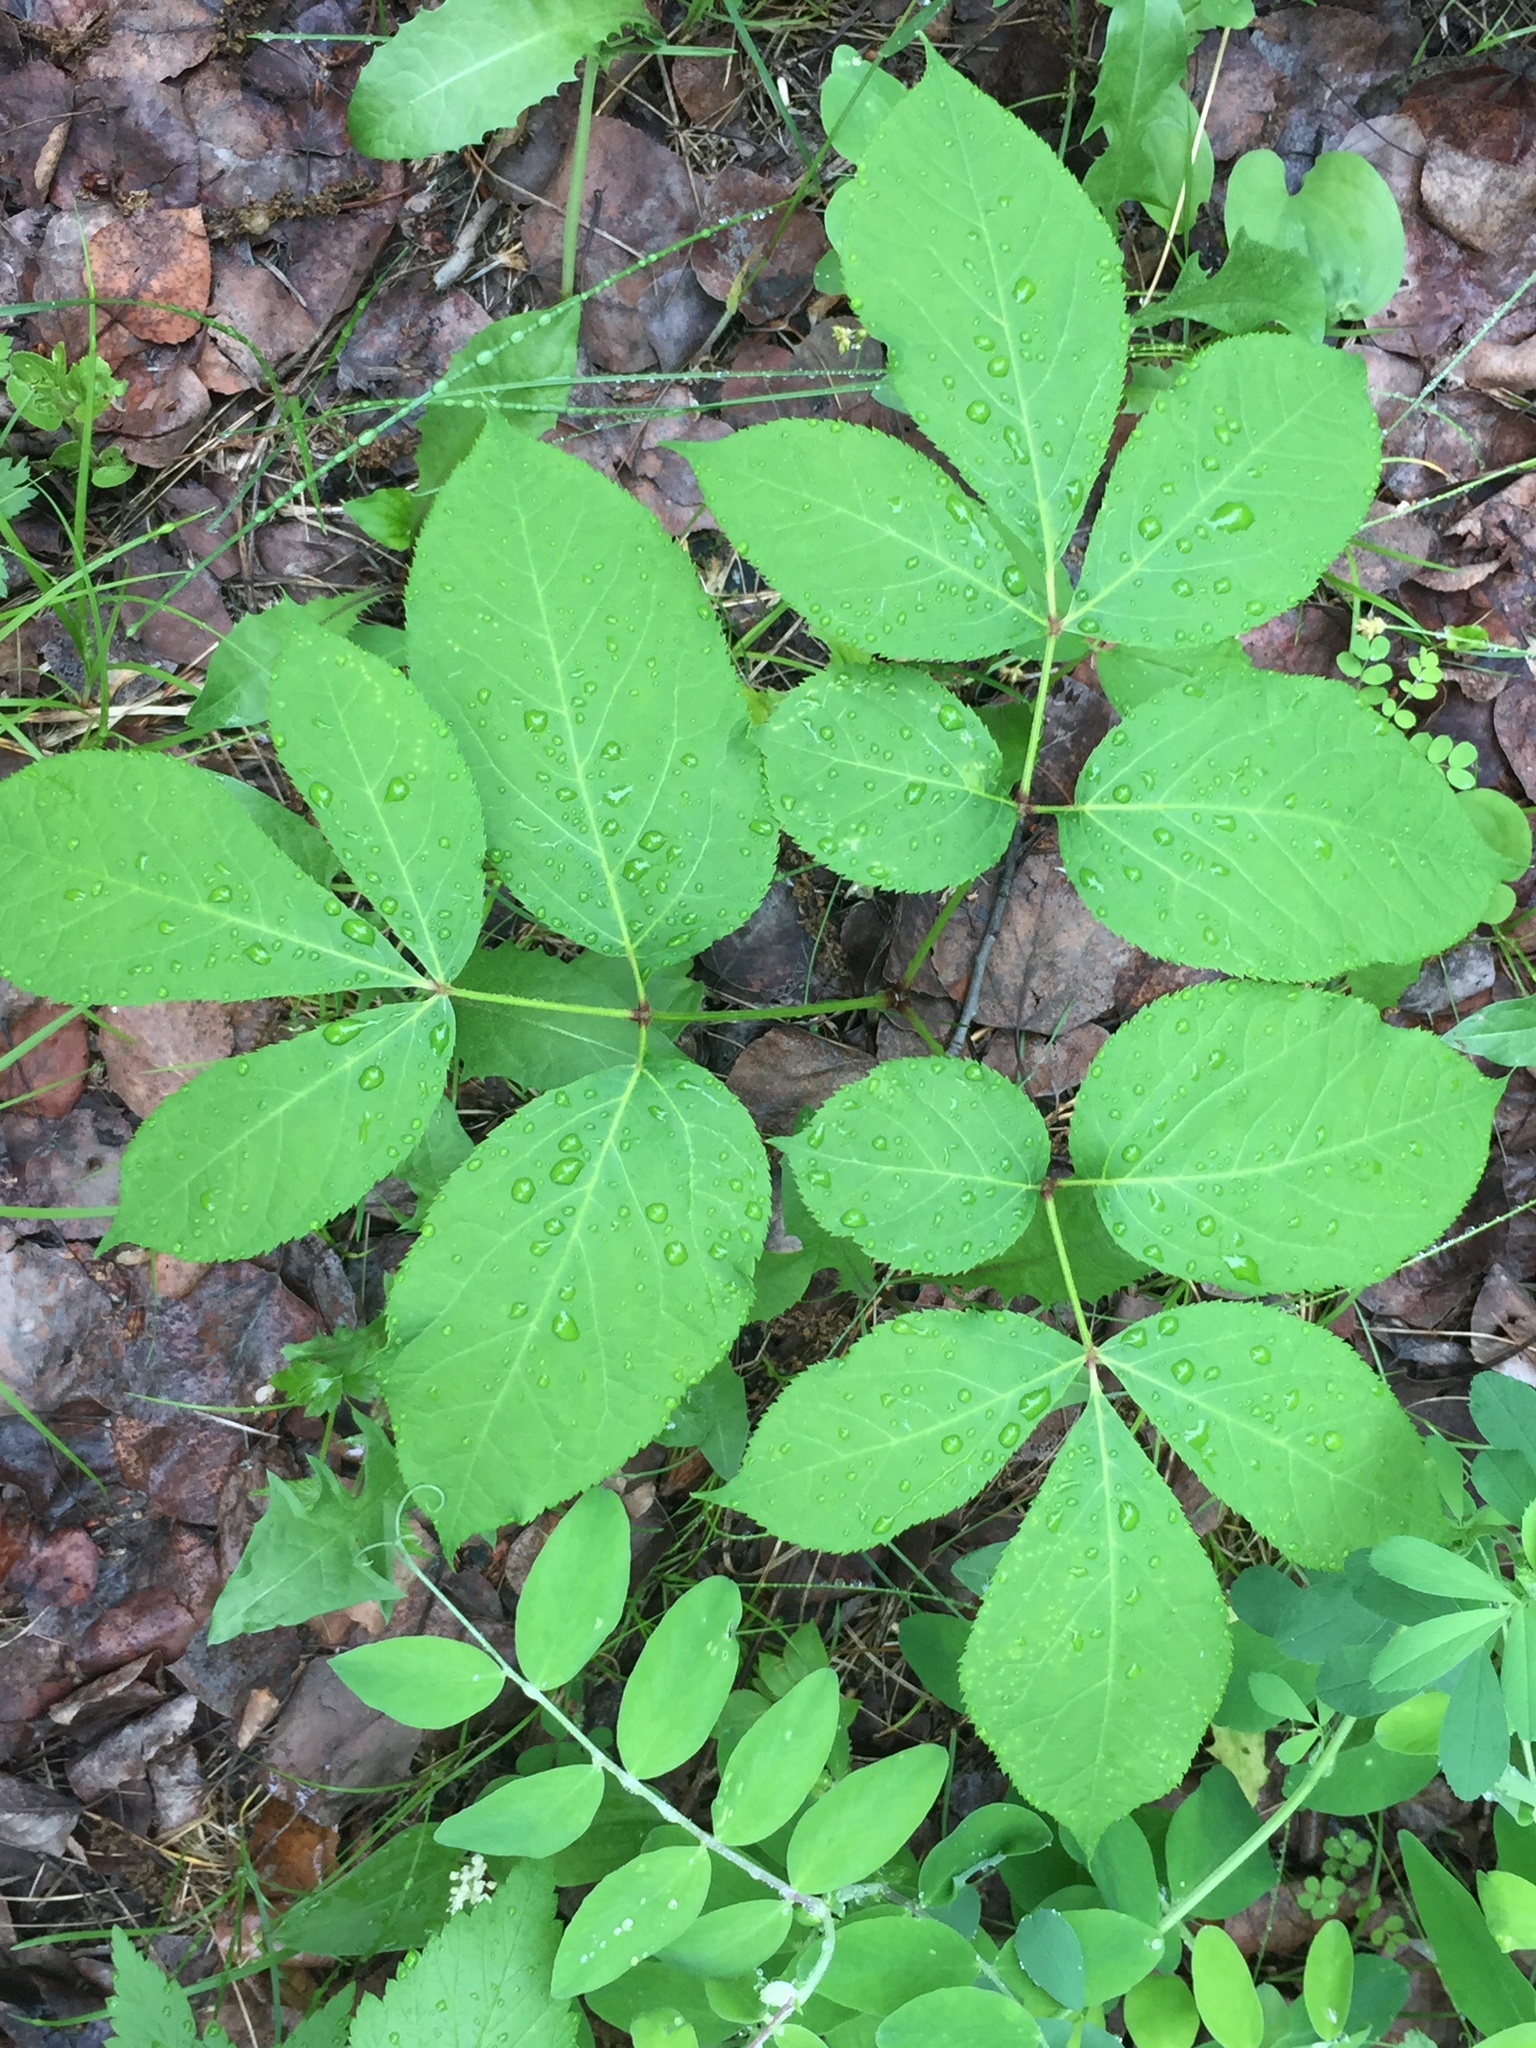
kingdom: Plantae
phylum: Tracheophyta
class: Magnoliopsida
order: Apiales
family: Araliaceae
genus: Aralia
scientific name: Aralia nudicaulis
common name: Wild sarsaparilla
